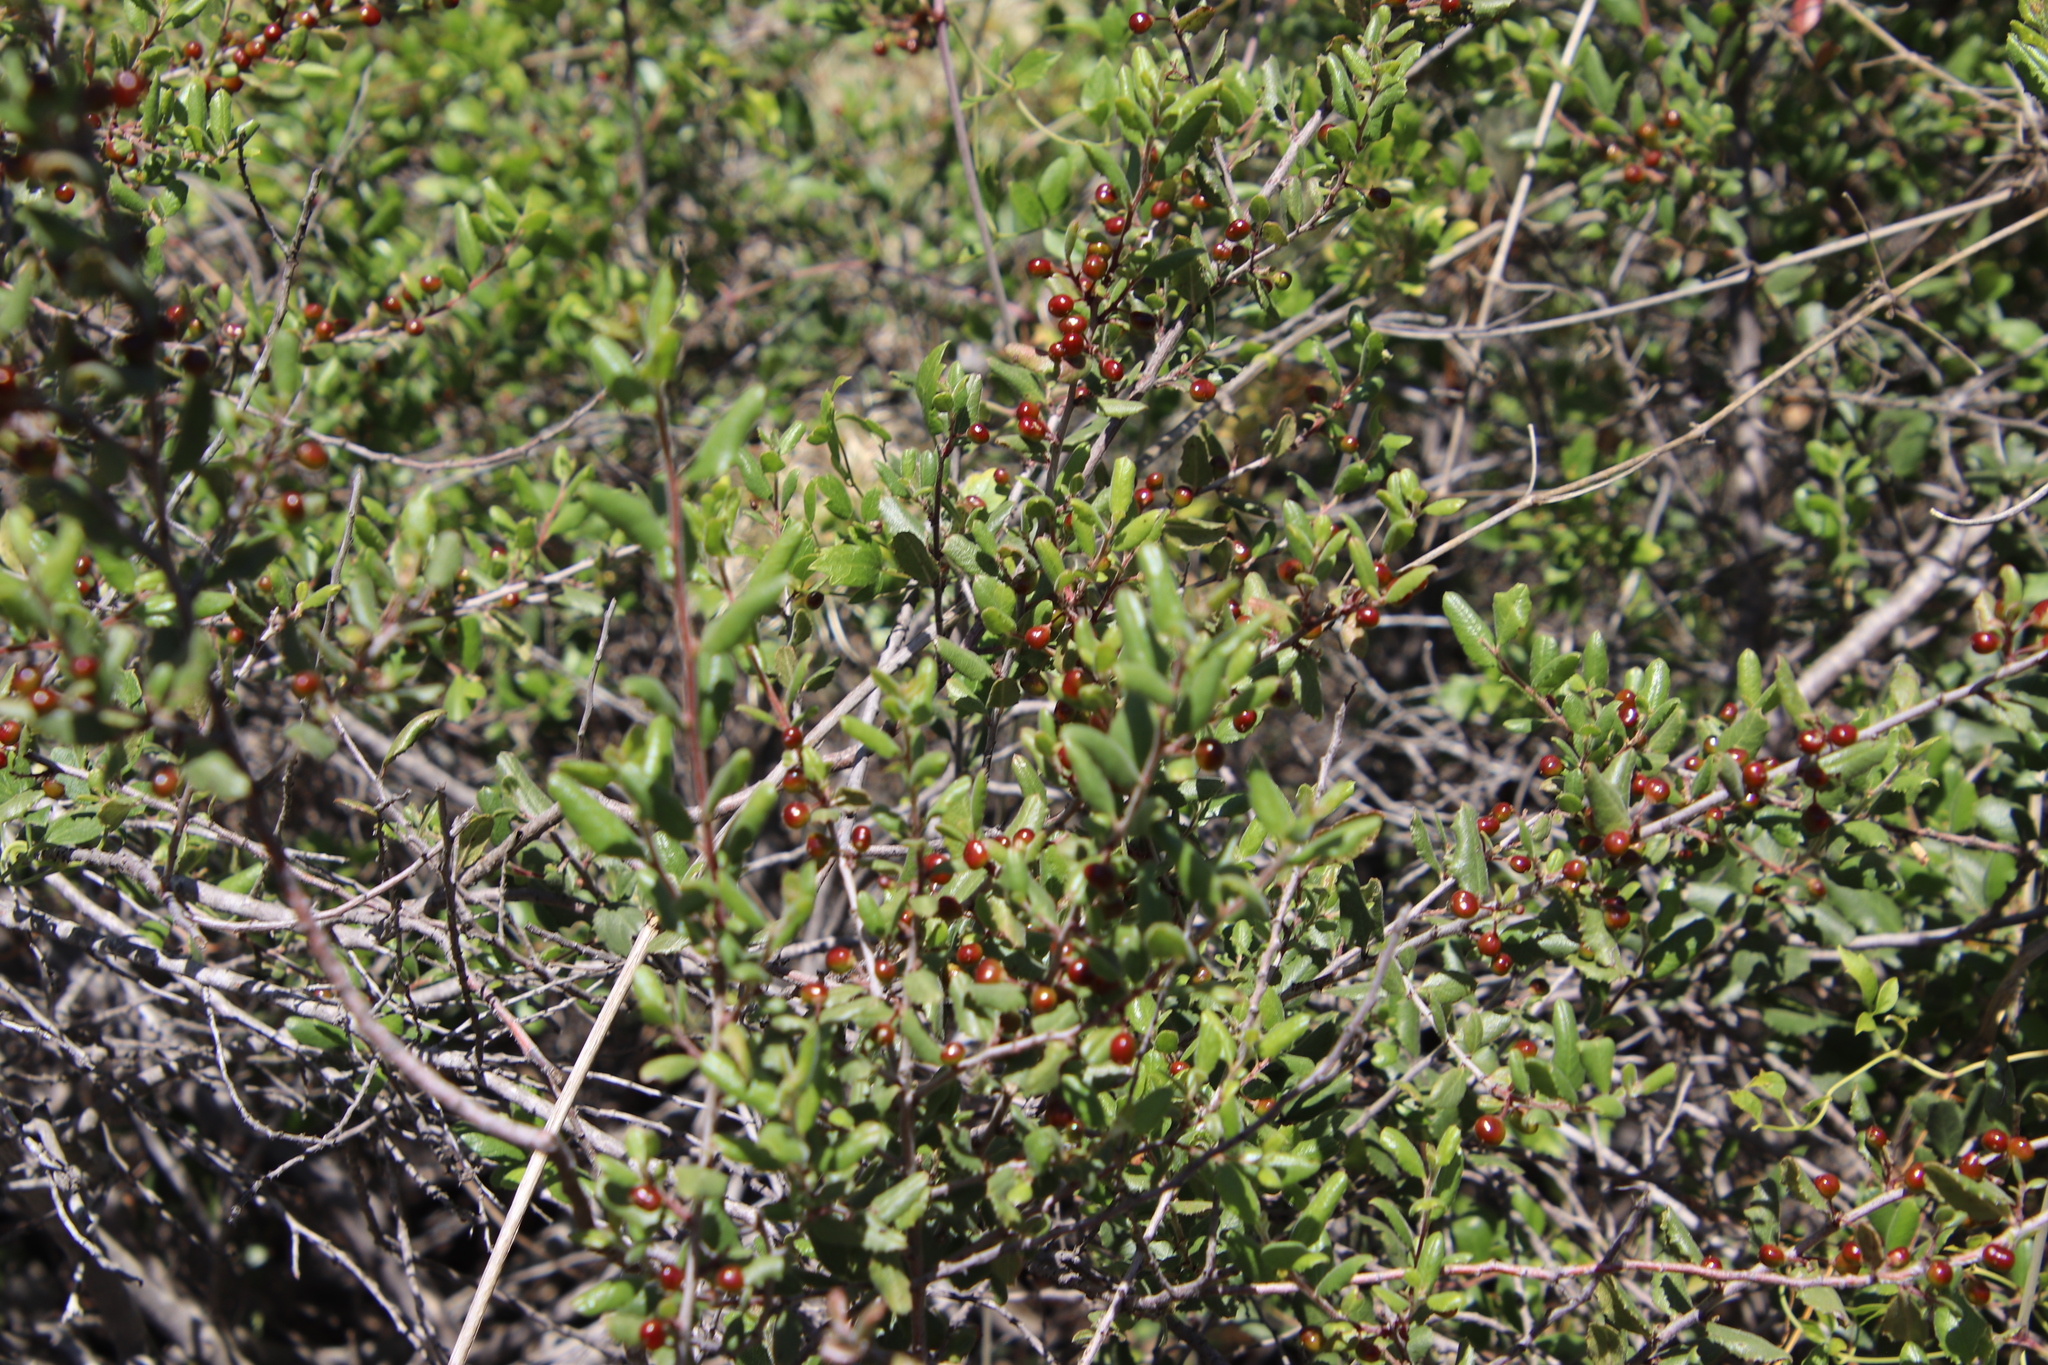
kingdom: Plantae
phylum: Tracheophyta
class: Magnoliopsida
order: Rosales
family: Rhamnaceae
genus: Endotropis
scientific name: Endotropis crocea
